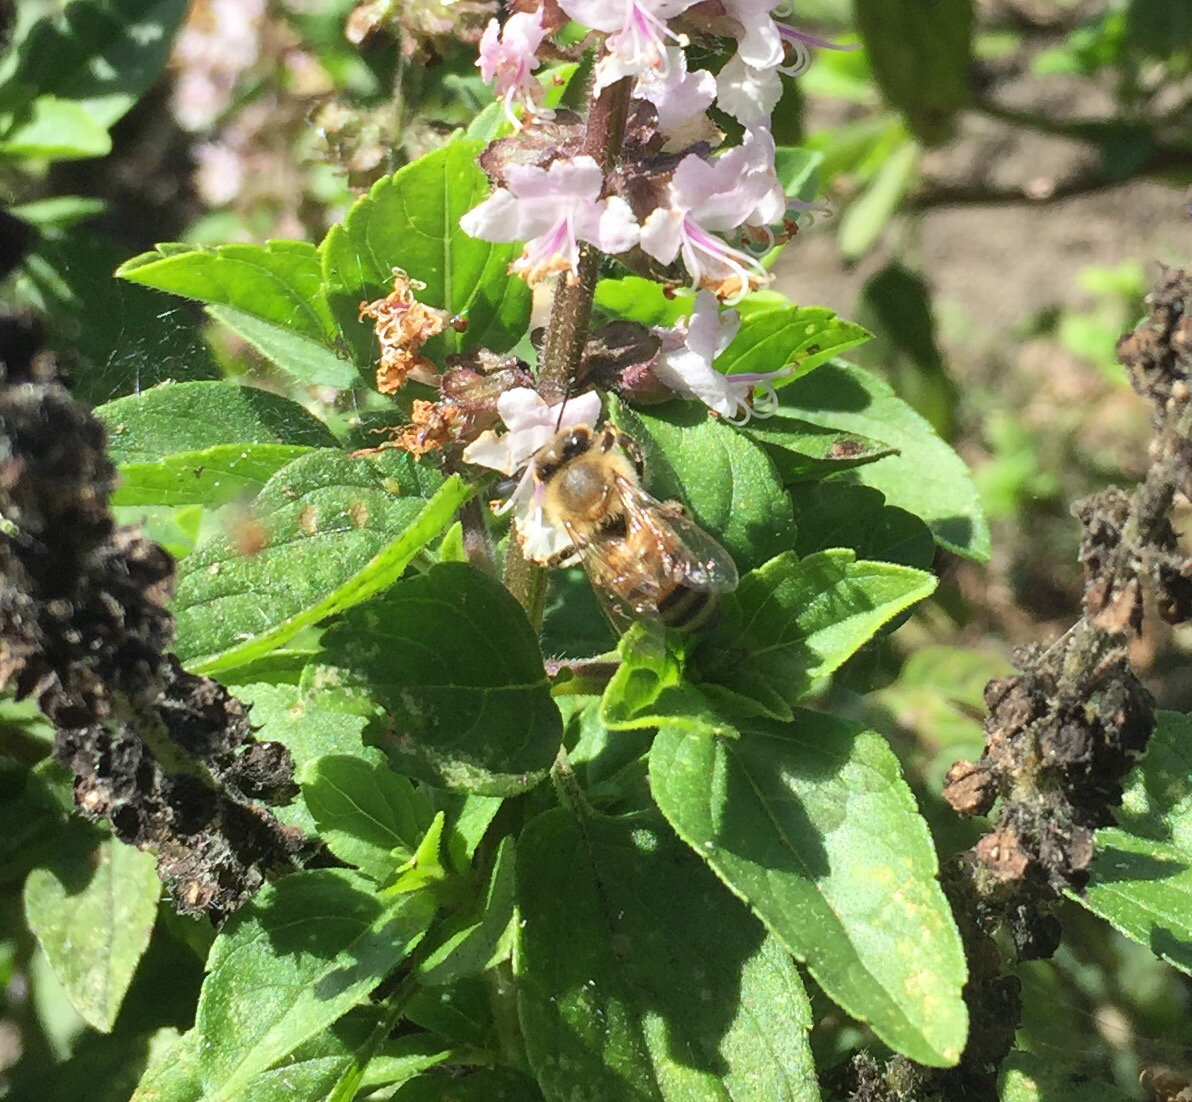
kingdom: Animalia
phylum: Arthropoda
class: Insecta
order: Hymenoptera
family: Apidae
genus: Apis
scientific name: Apis mellifera
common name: Honey bee
